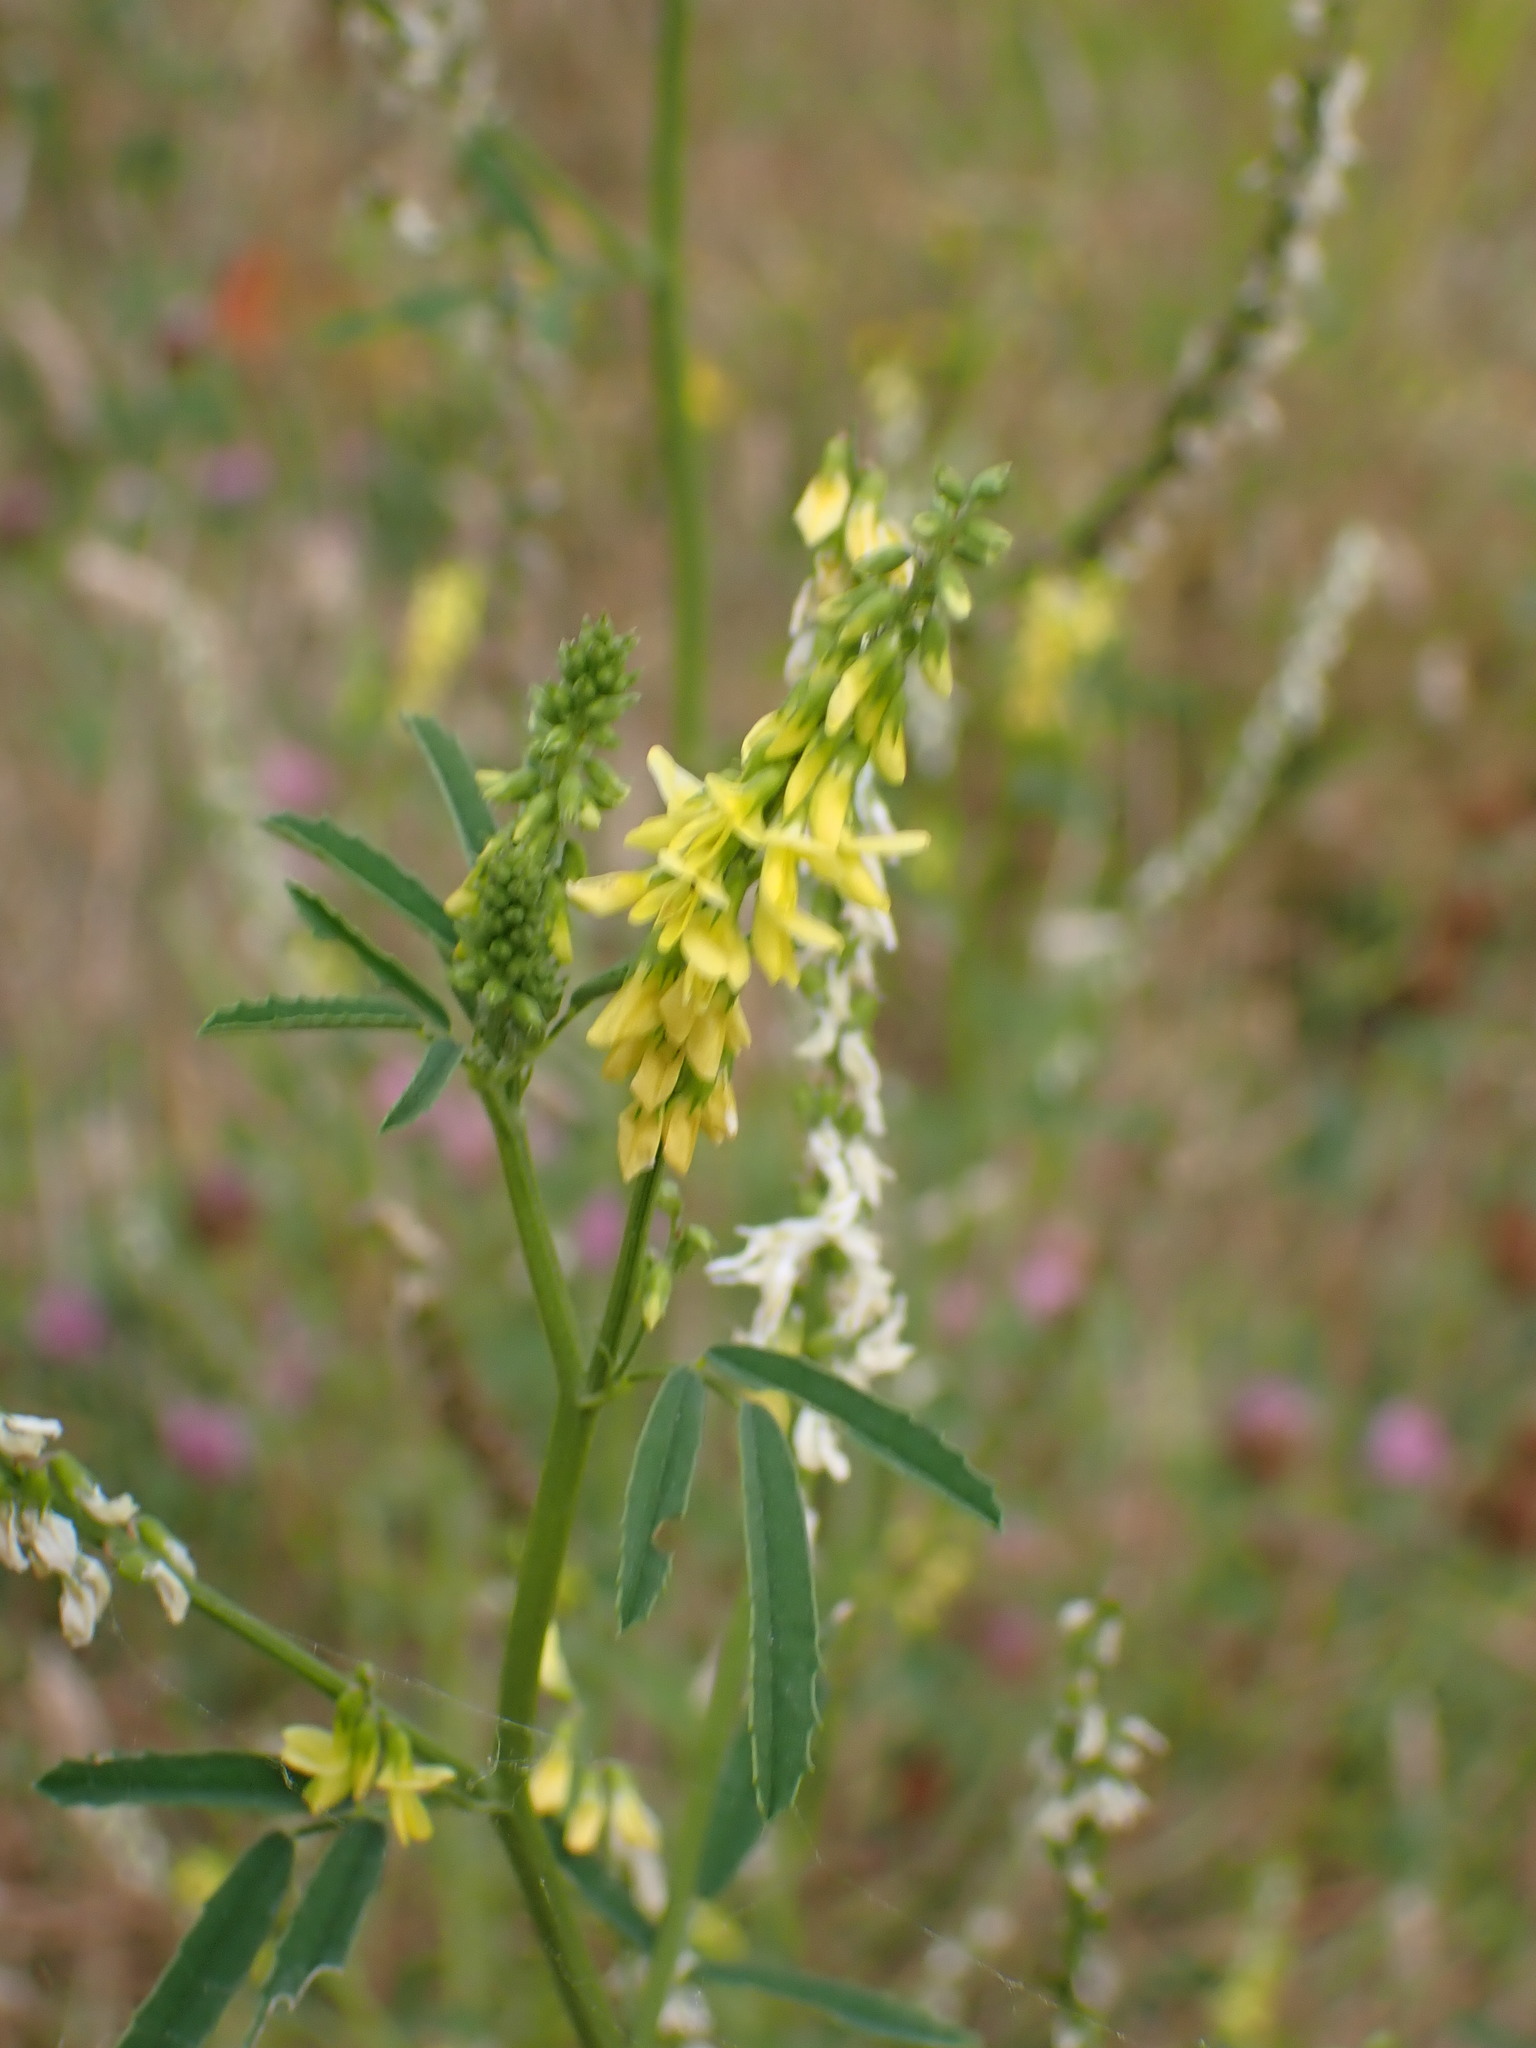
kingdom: Plantae
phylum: Tracheophyta
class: Magnoliopsida
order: Fabales
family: Fabaceae
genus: Melilotus
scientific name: Melilotus officinalis
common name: Sweetclover
